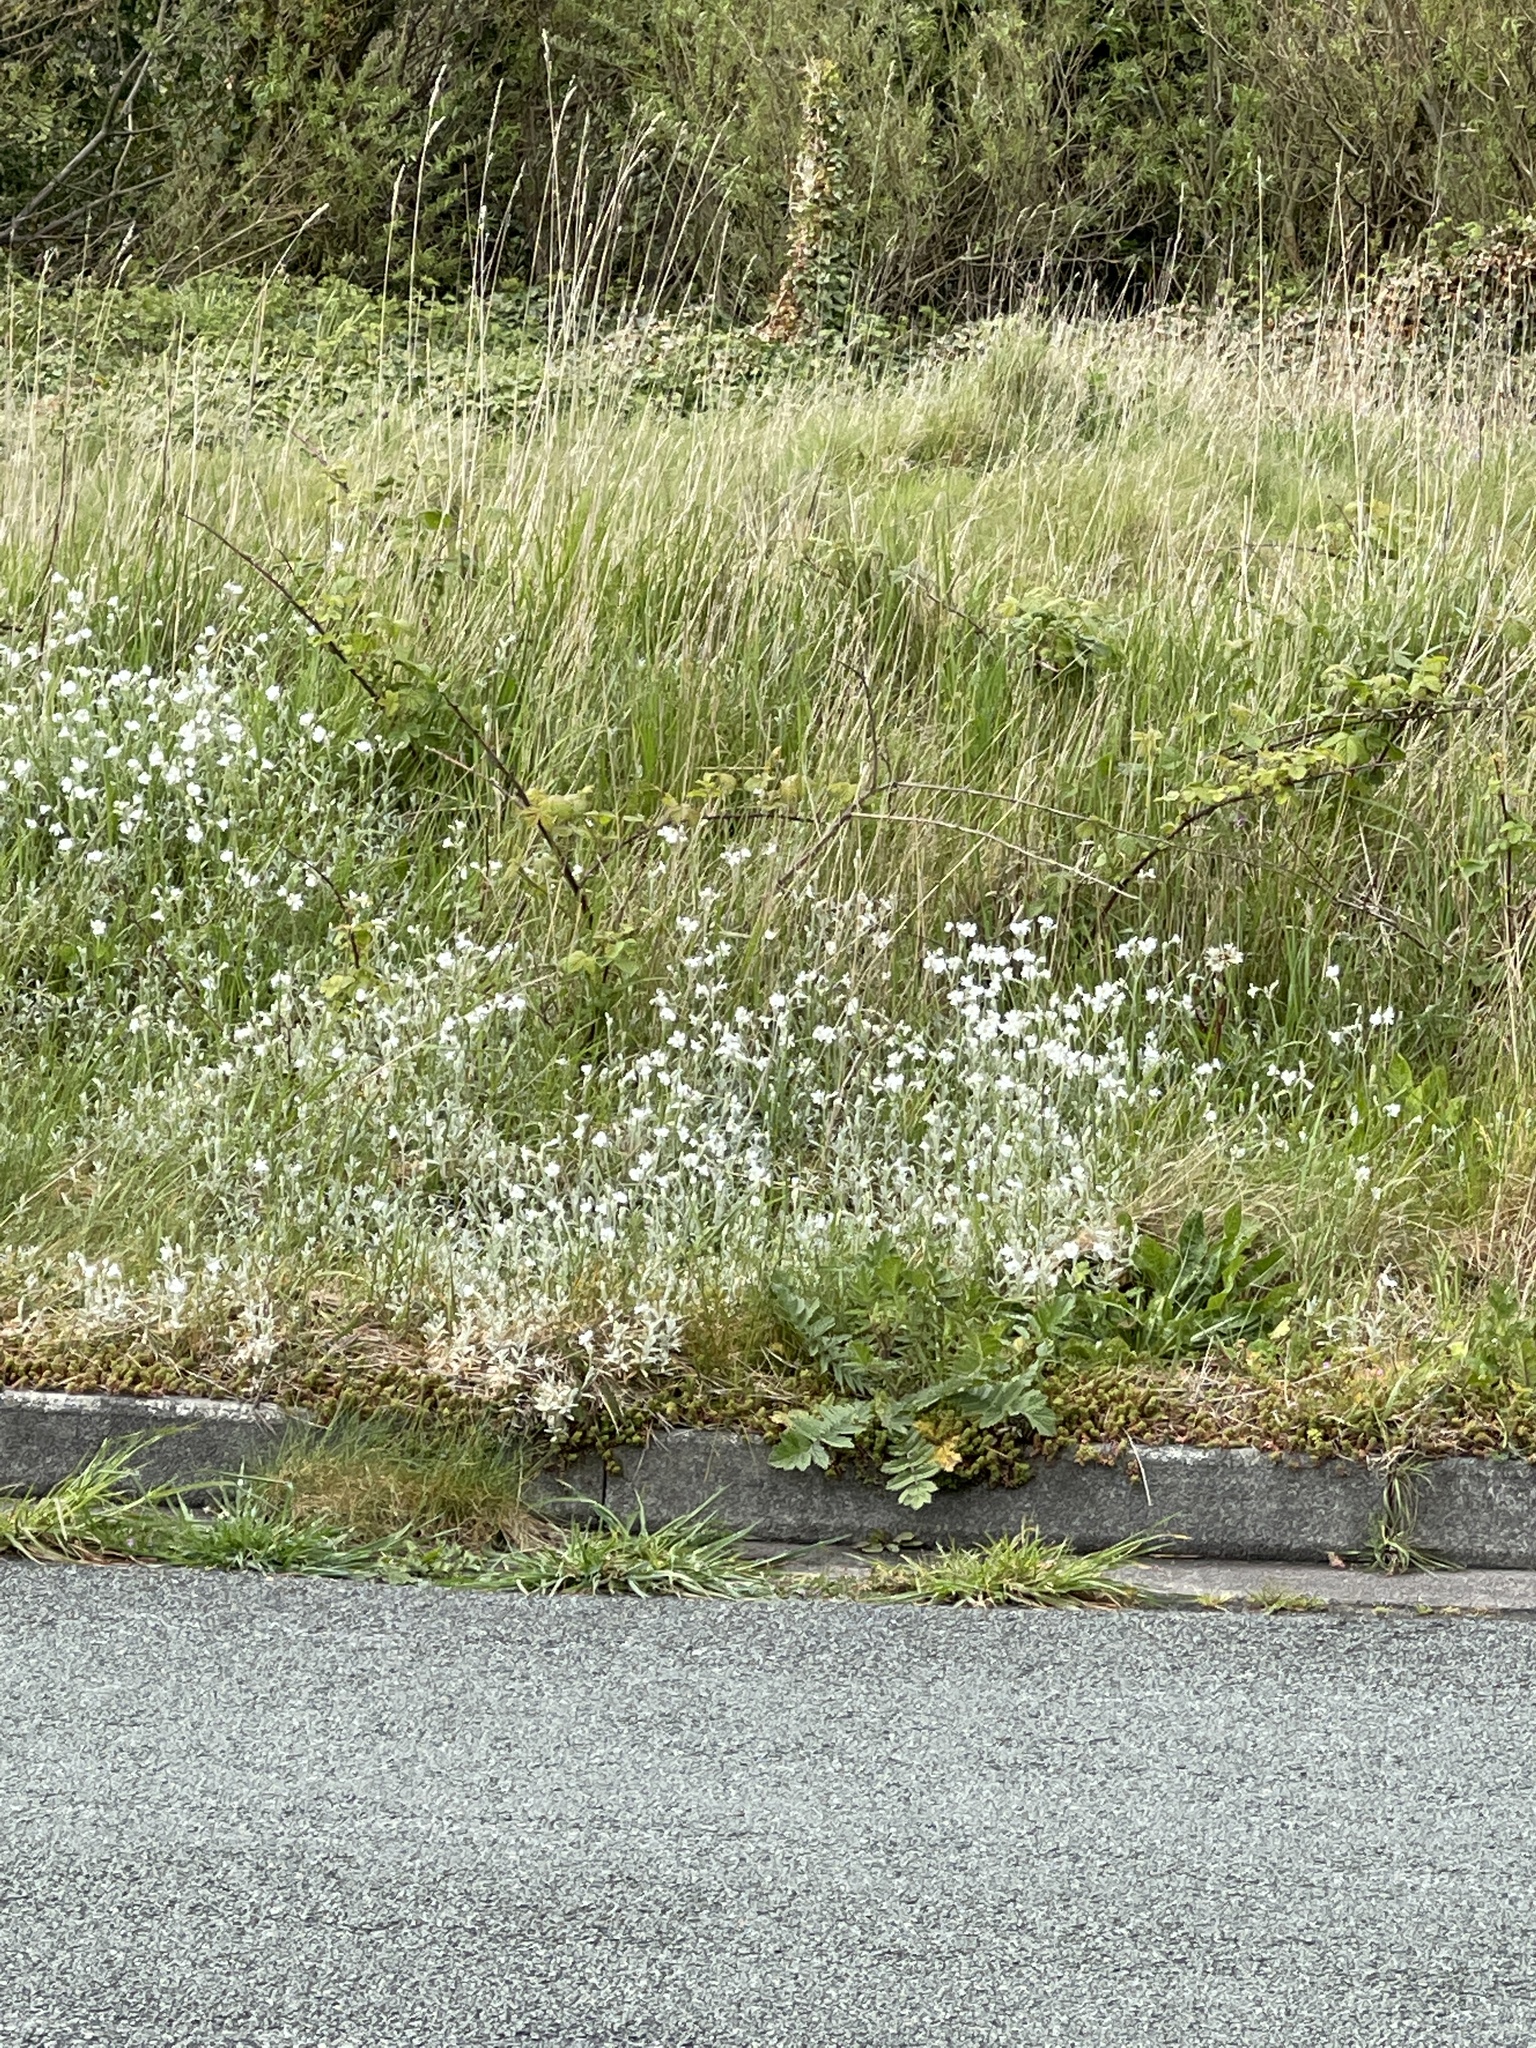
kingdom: Plantae
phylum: Tracheophyta
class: Magnoliopsida
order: Caryophyllales
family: Caryophyllaceae
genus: Cerastium
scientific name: Cerastium tomentosum
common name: Snow-in-summer
